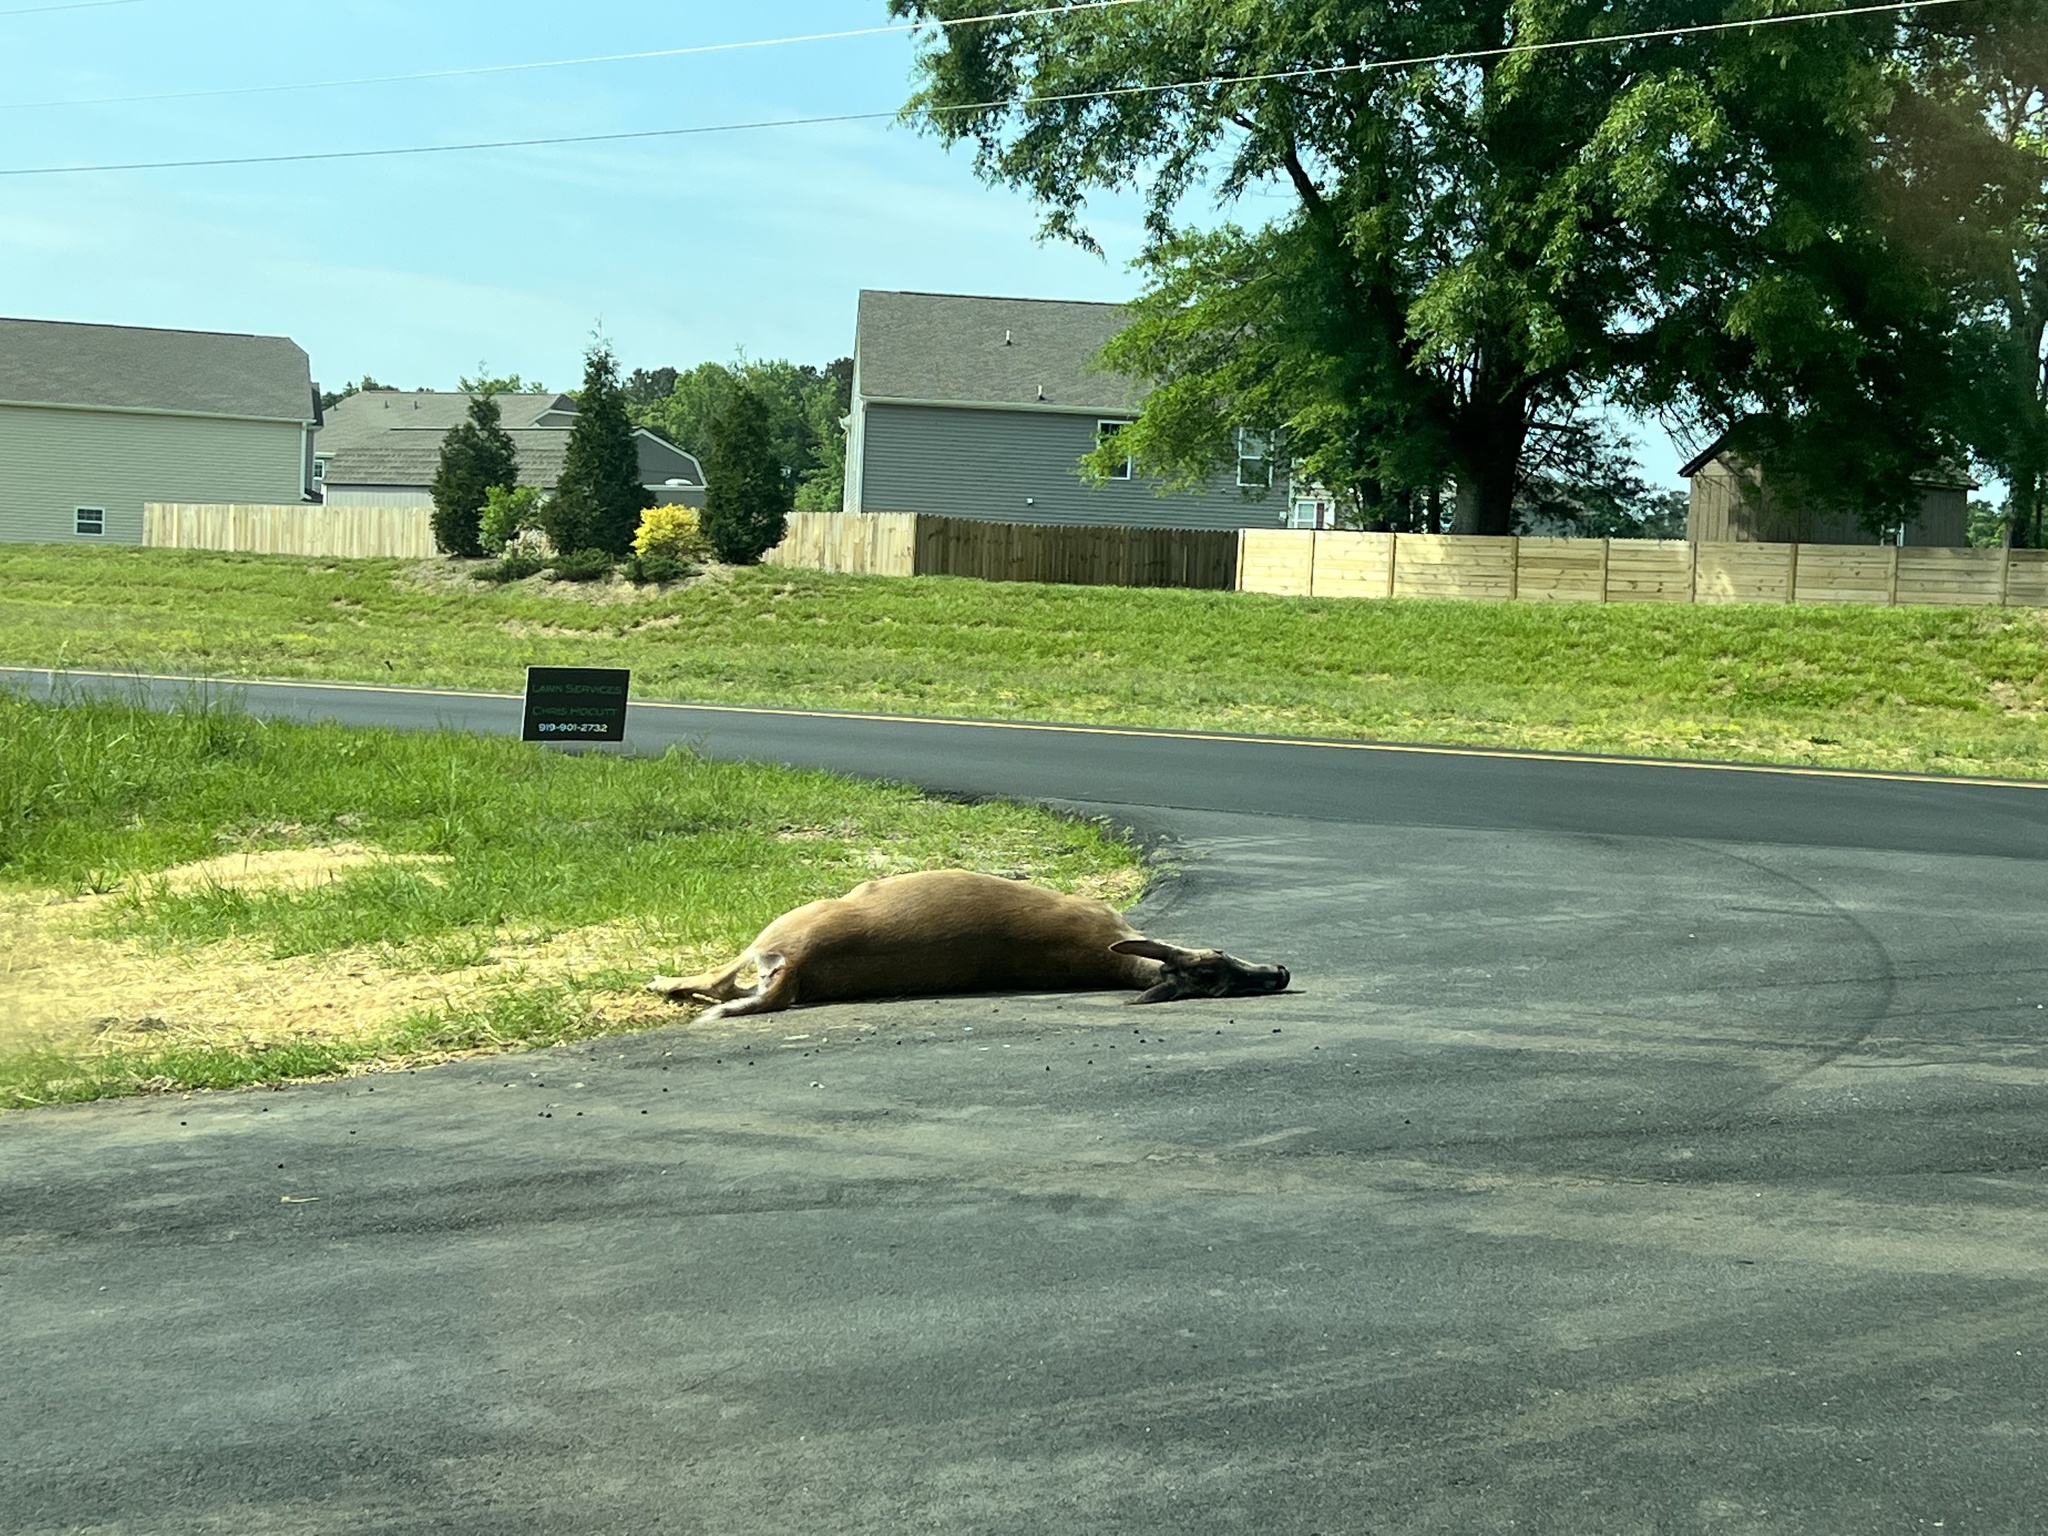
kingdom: Animalia
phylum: Chordata
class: Mammalia
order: Artiodactyla
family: Cervidae
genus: Odocoileus
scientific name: Odocoileus virginianus
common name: White-tailed deer
